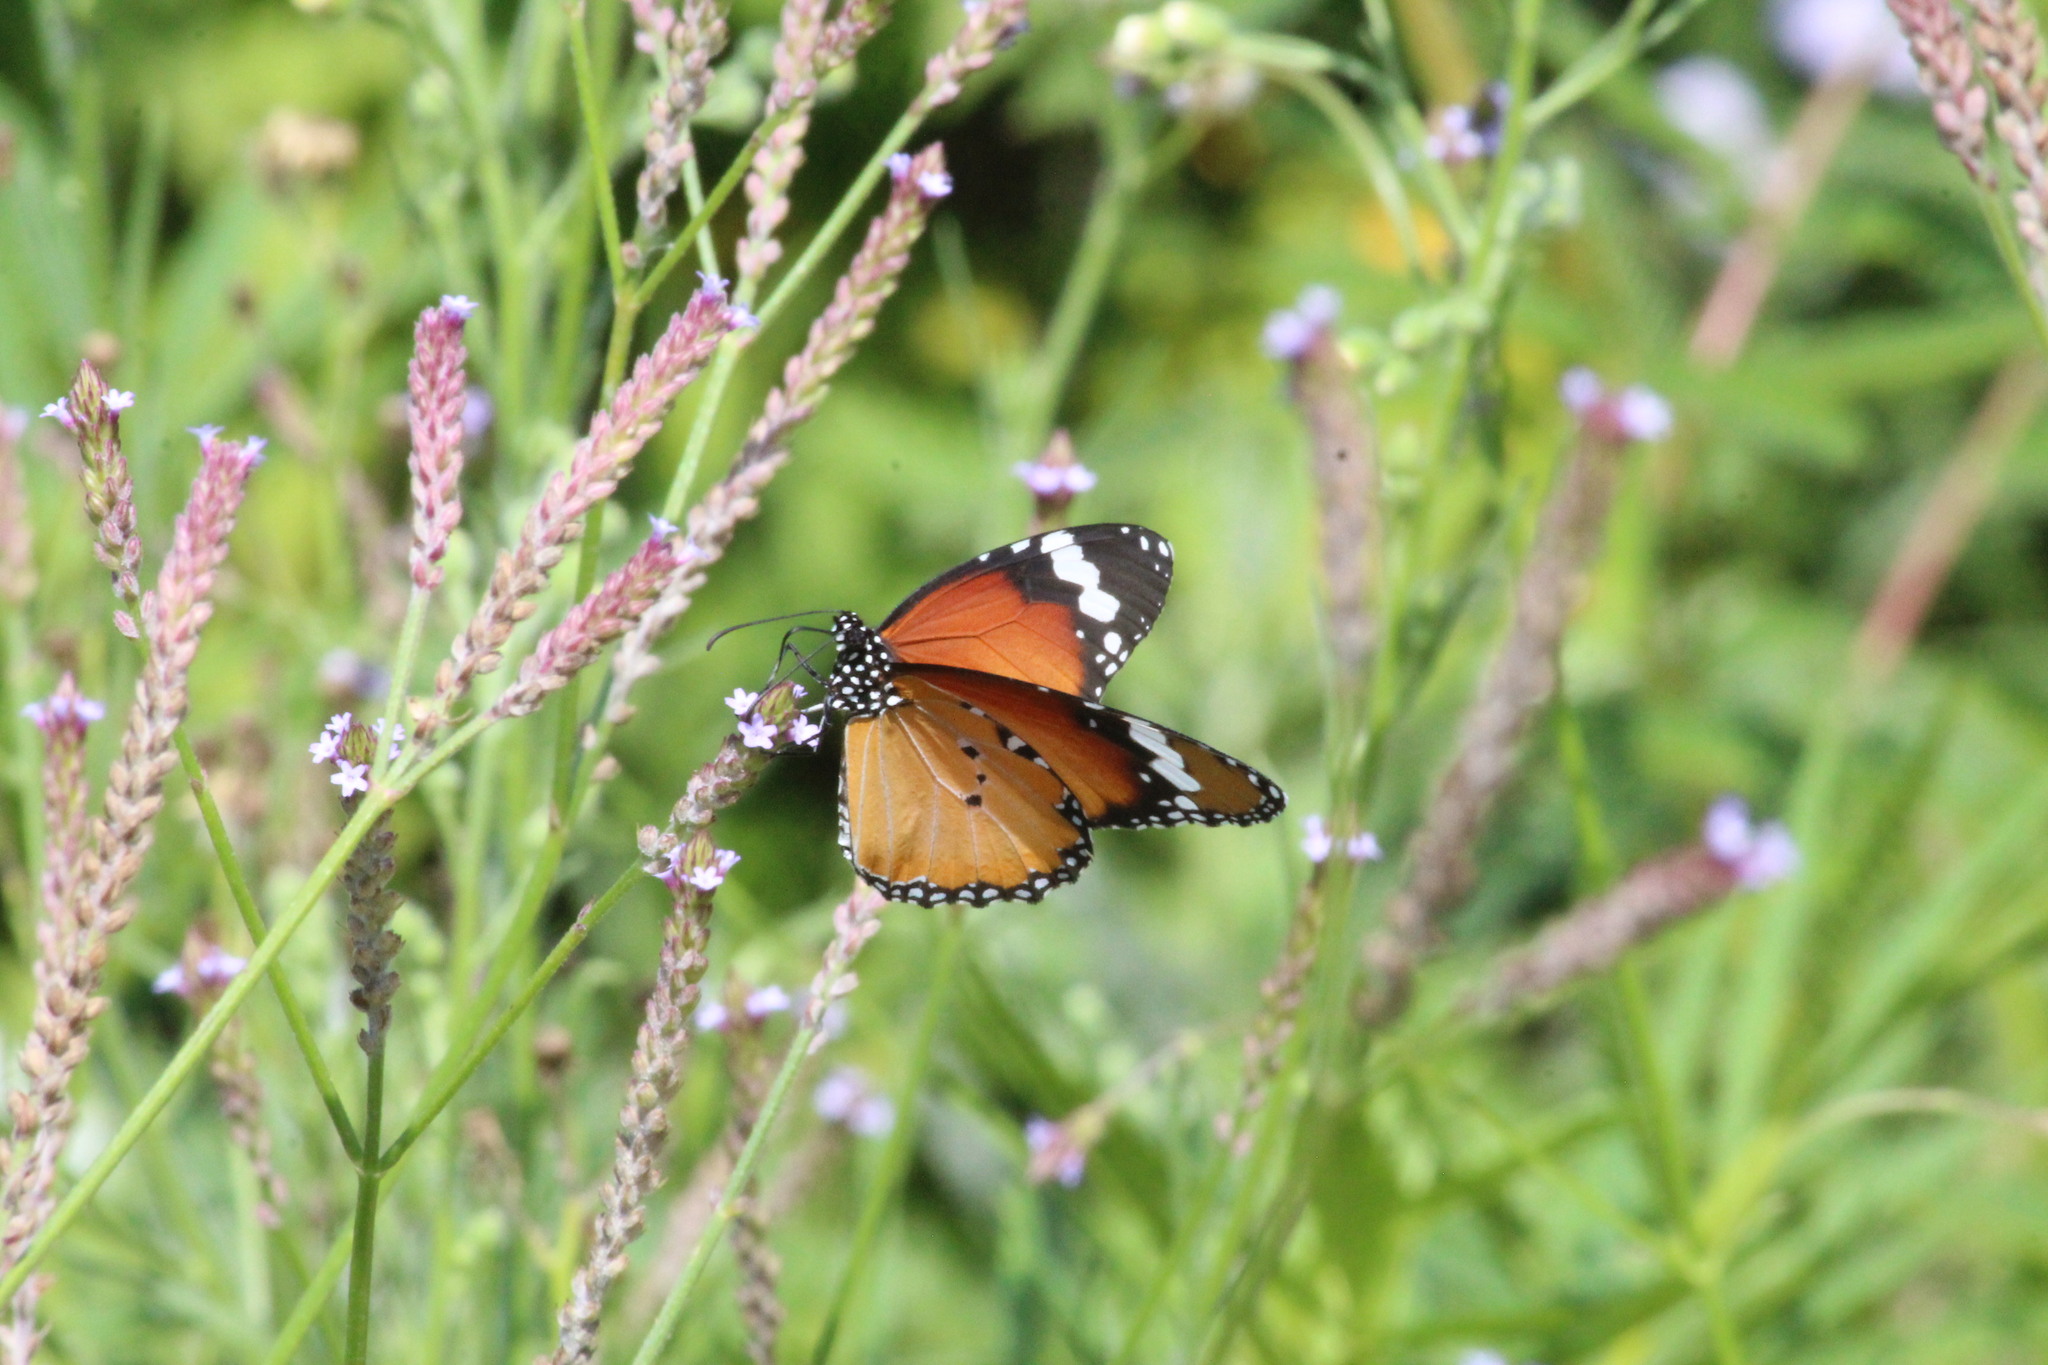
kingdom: Animalia
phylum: Arthropoda
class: Insecta
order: Lepidoptera
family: Nymphalidae
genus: Danaus
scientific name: Danaus chrysippus
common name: Plain tiger
